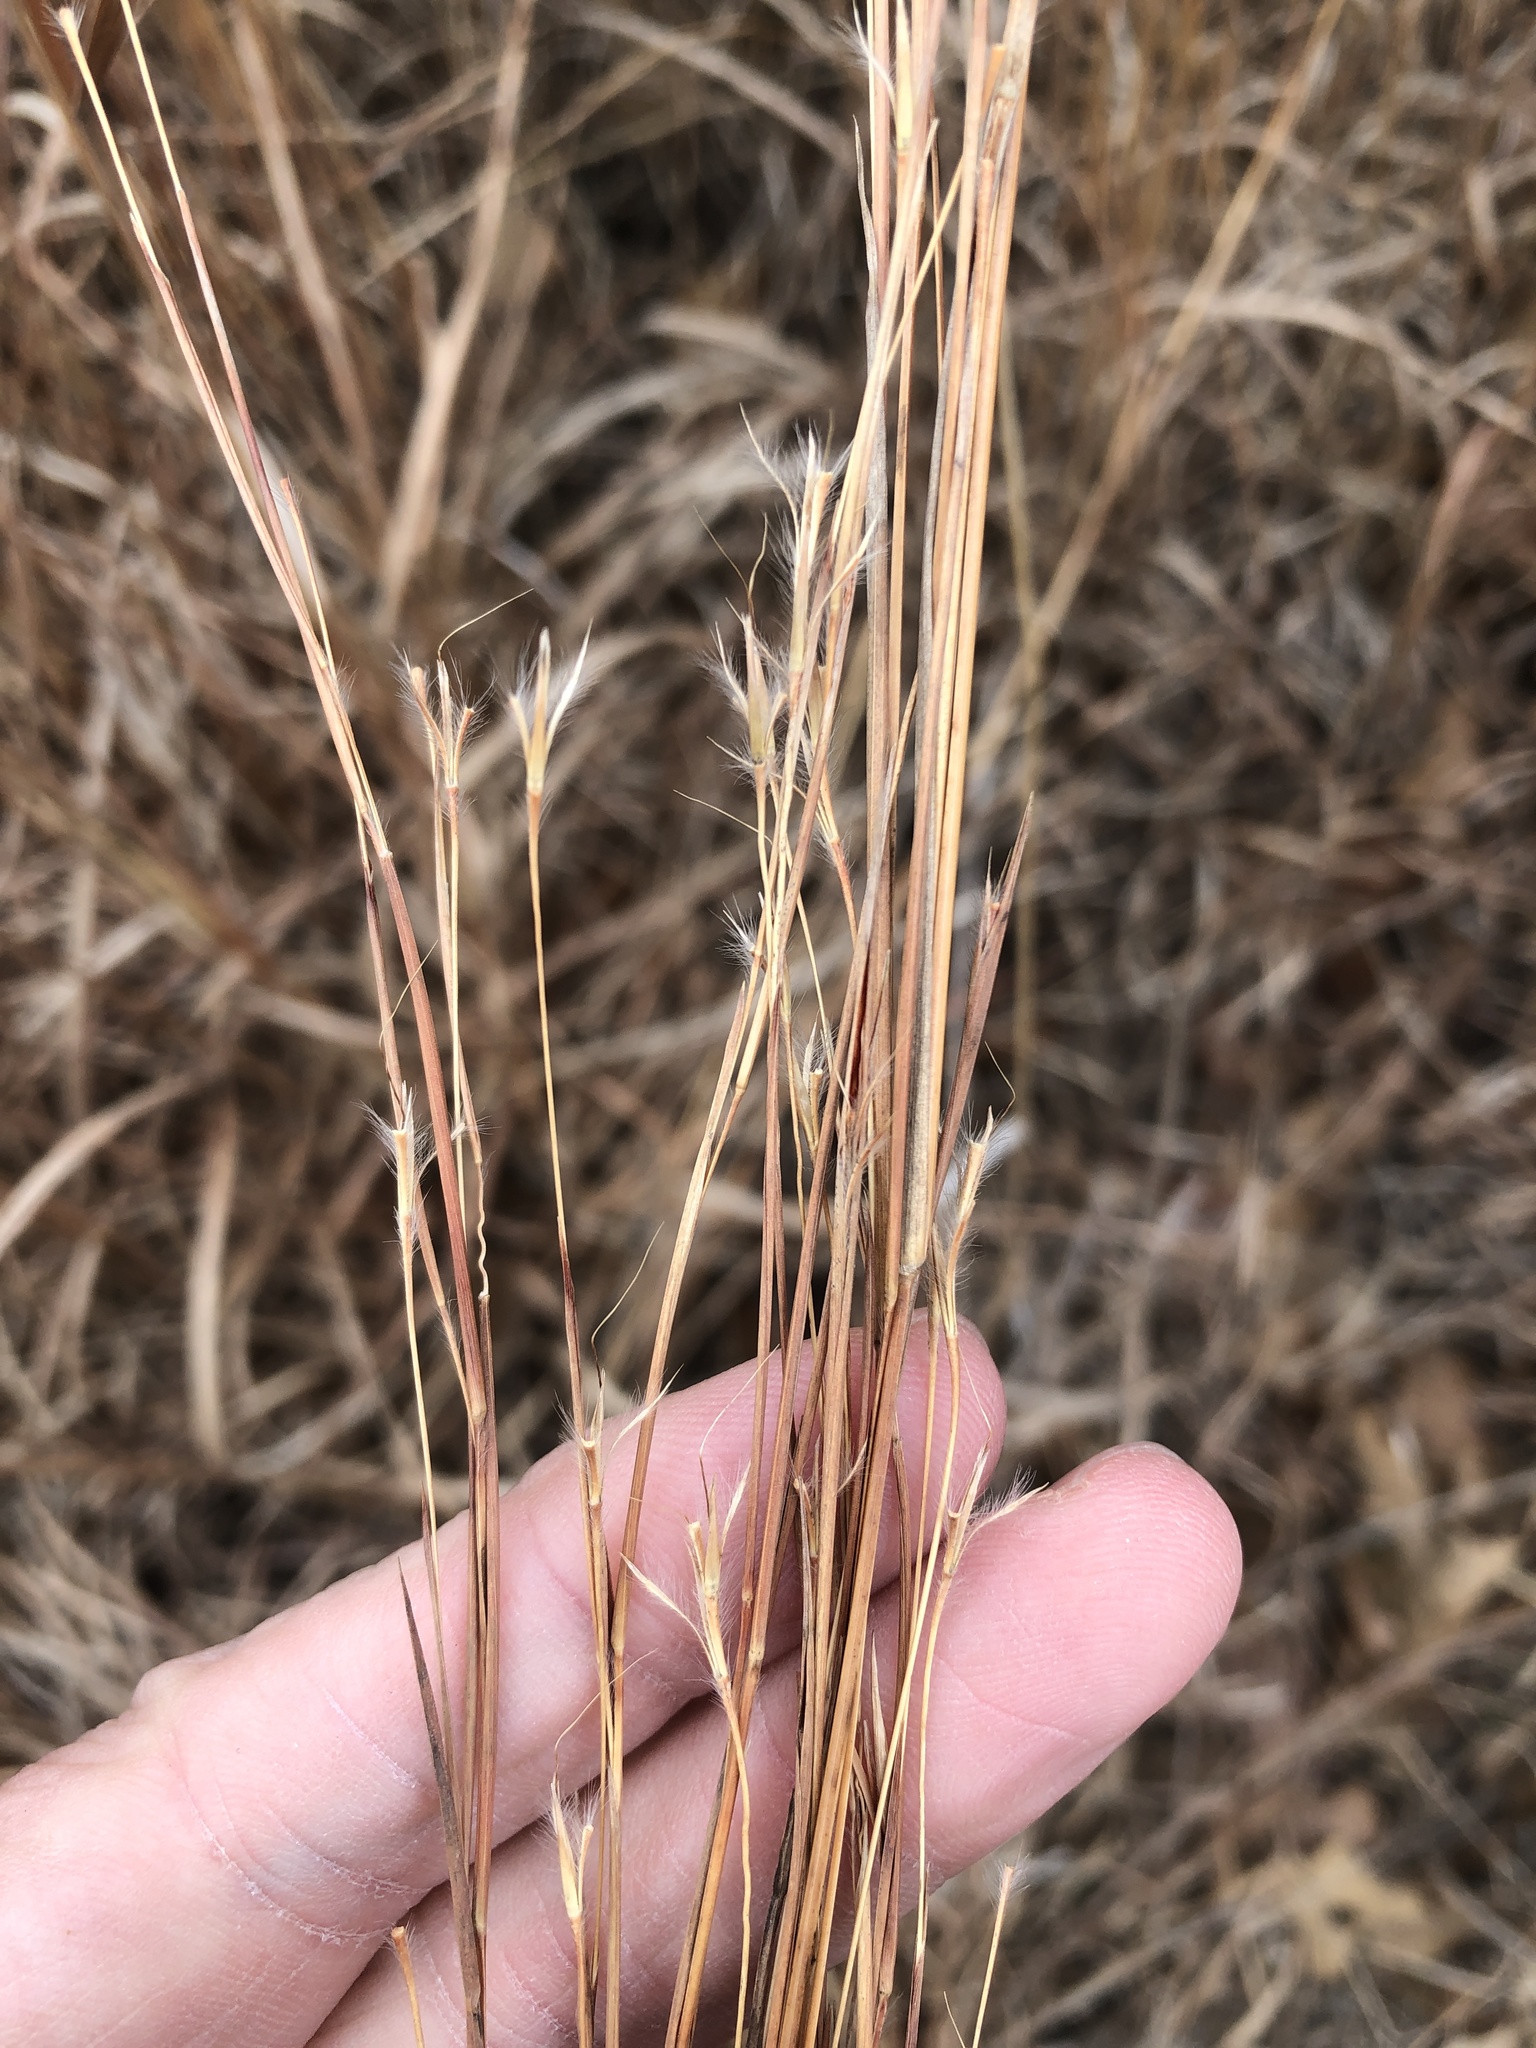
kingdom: Plantae
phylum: Tracheophyta
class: Liliopsida
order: Poales
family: Poaceae
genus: Schizachyrium
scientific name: Schizachyrium scoparium
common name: Little bluestem
